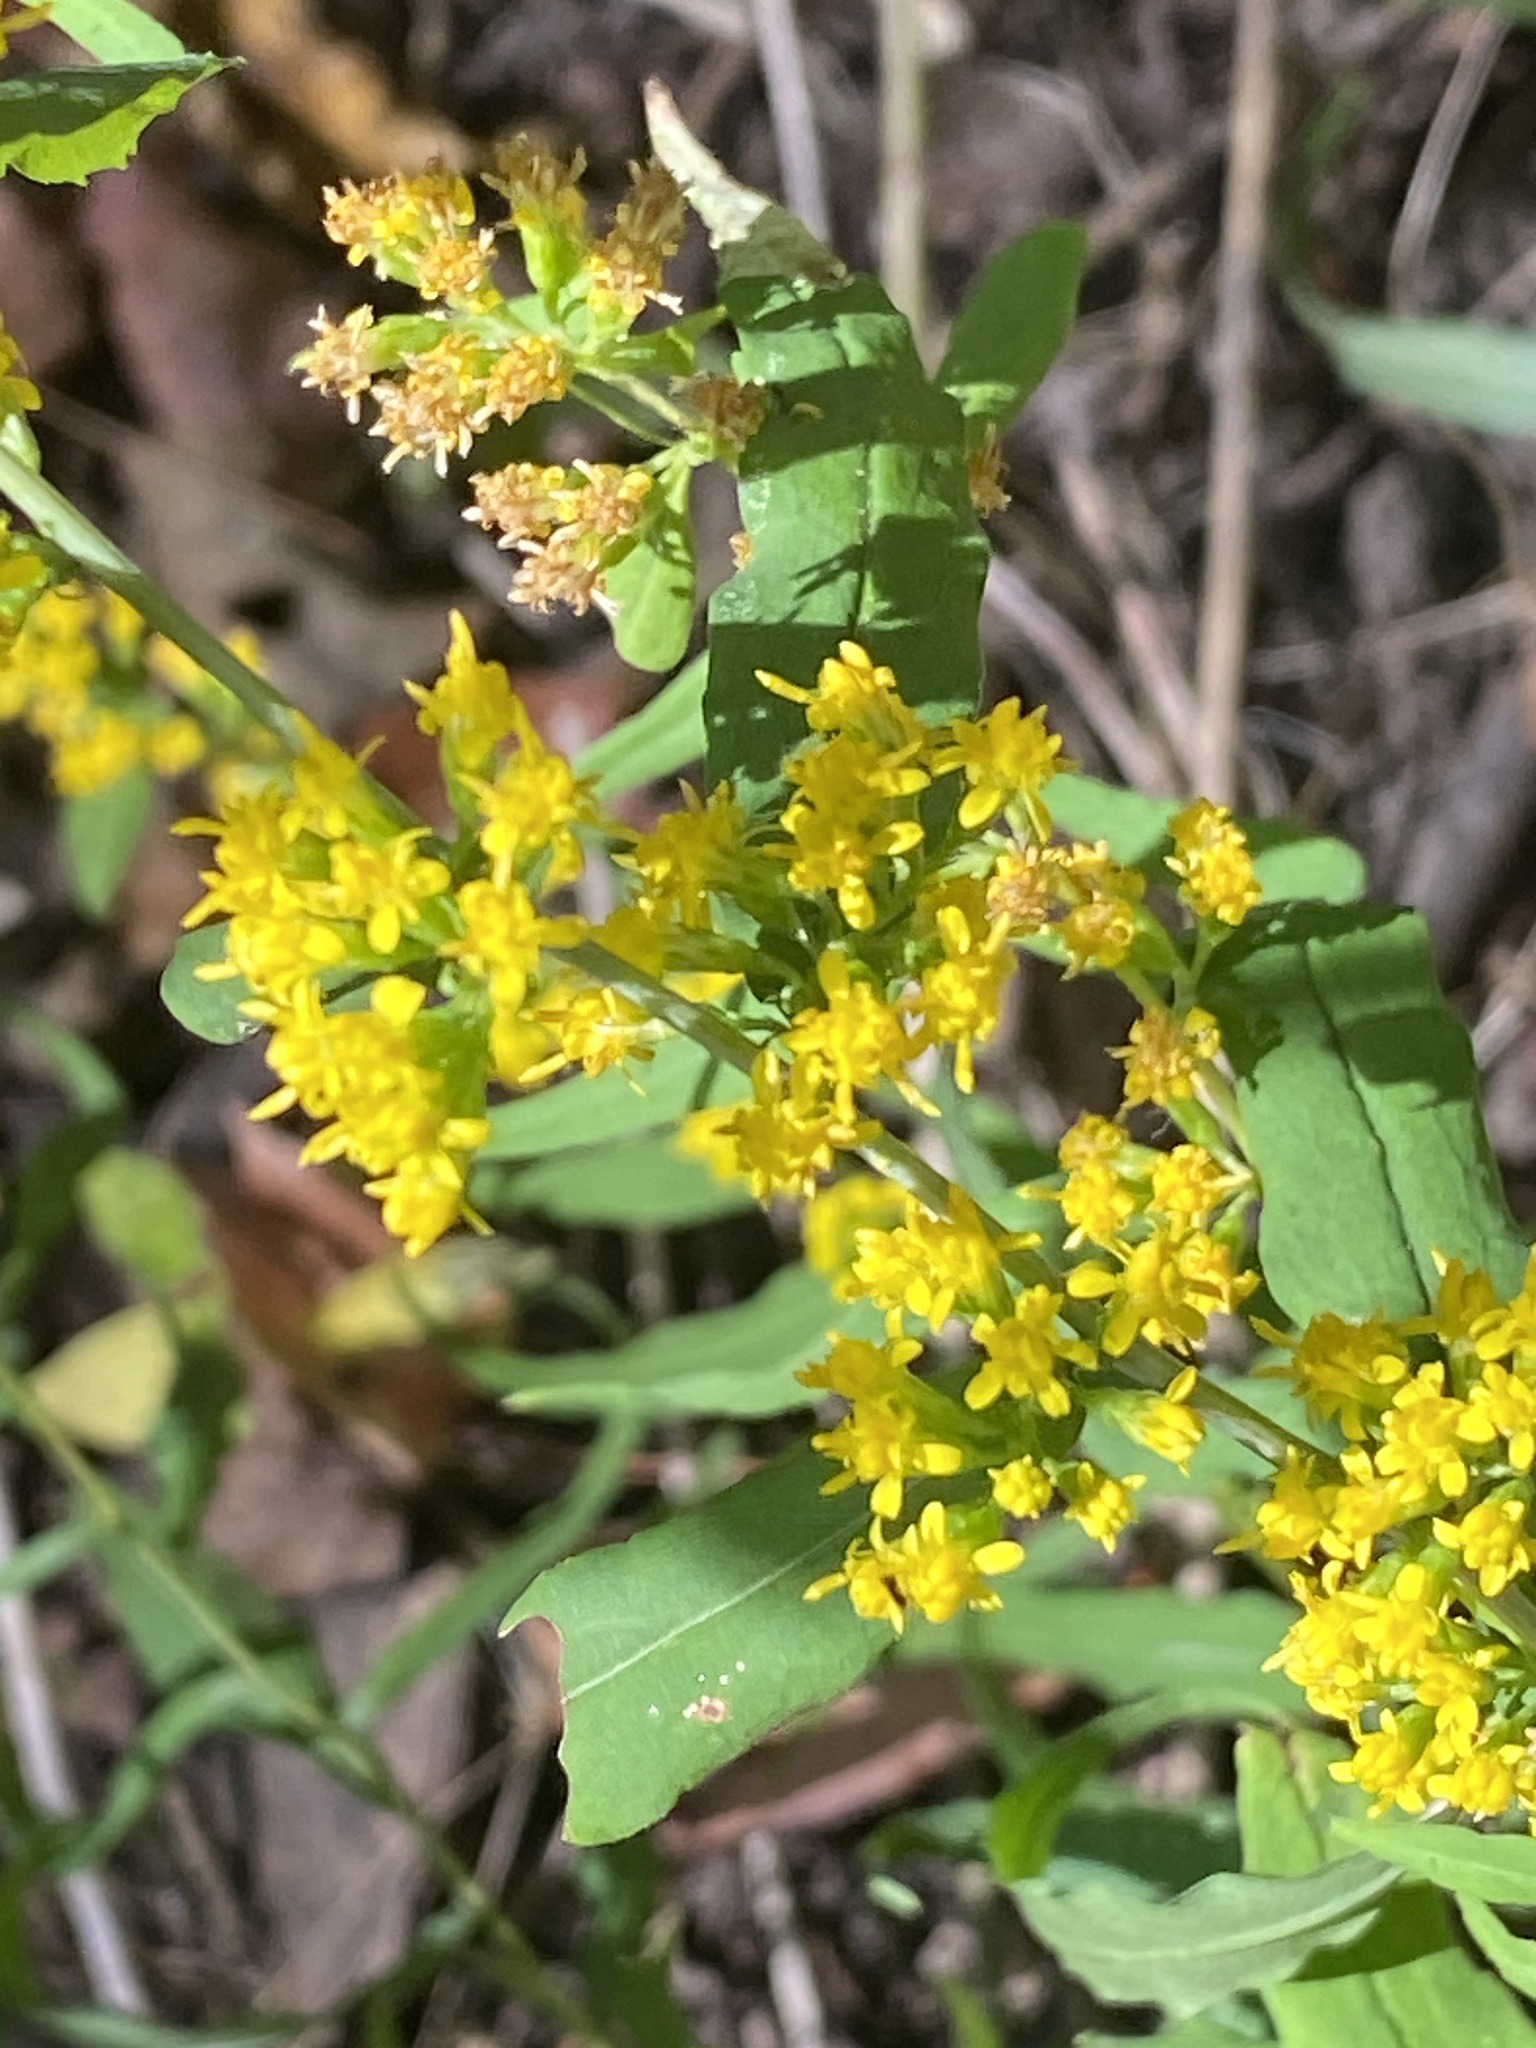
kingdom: Plantae
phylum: Tracheophyta
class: Magnoliopsida
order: Asterales
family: Asteraceae
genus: Solidago
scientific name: Solidago caesia
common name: Woodland goldenrod
